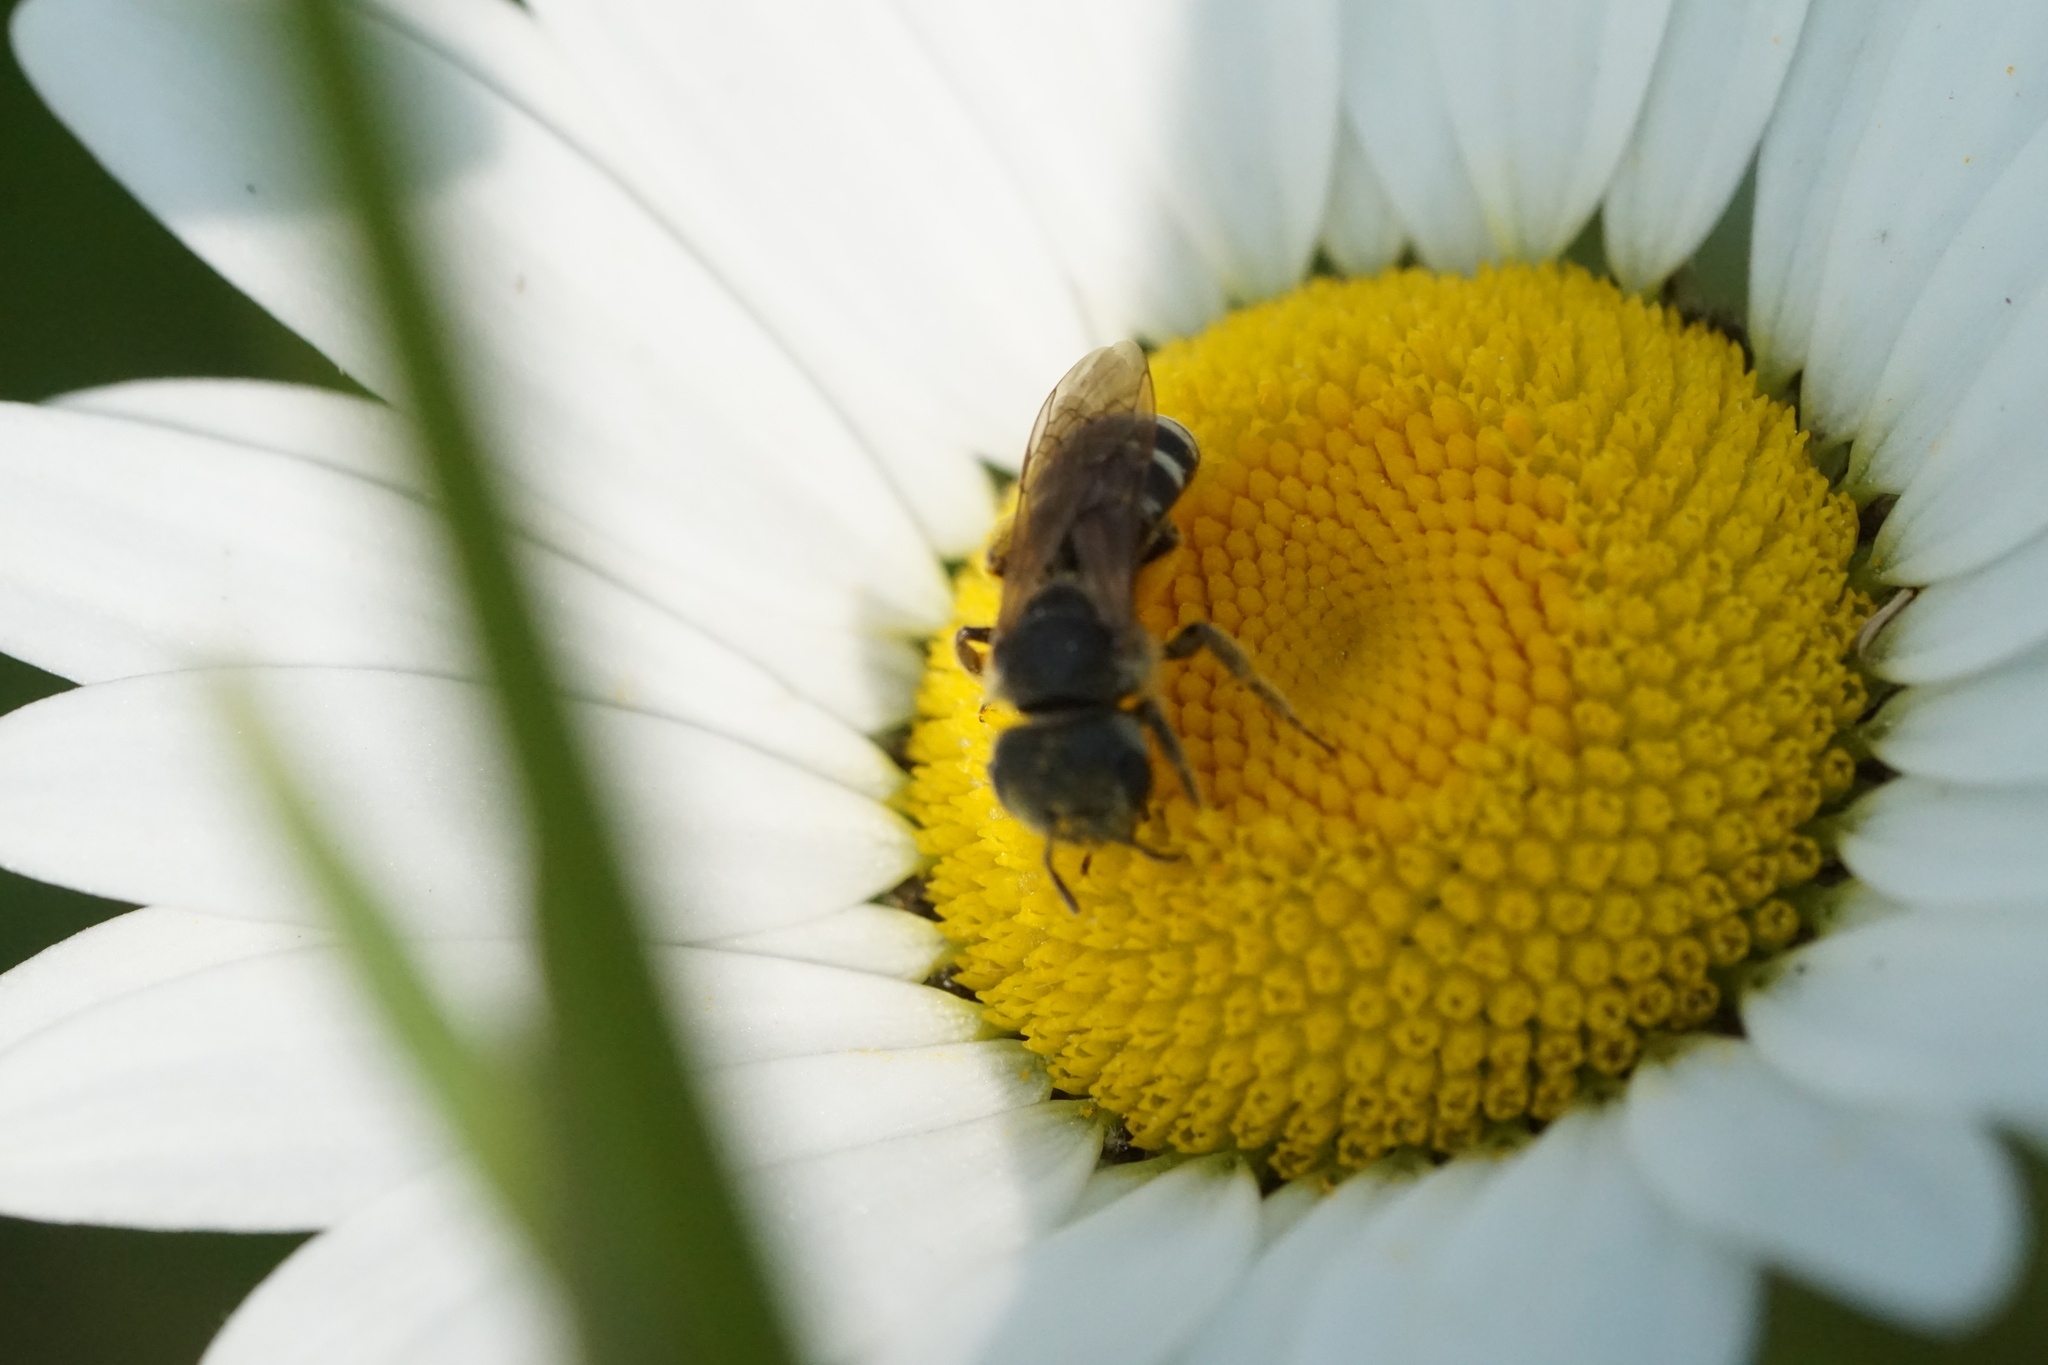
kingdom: Animalia
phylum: Arthropoda
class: Insecta
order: Hymenoptera
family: Halictidae
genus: Halictus
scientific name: Halictus ligatus
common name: Ligated furrow bee
